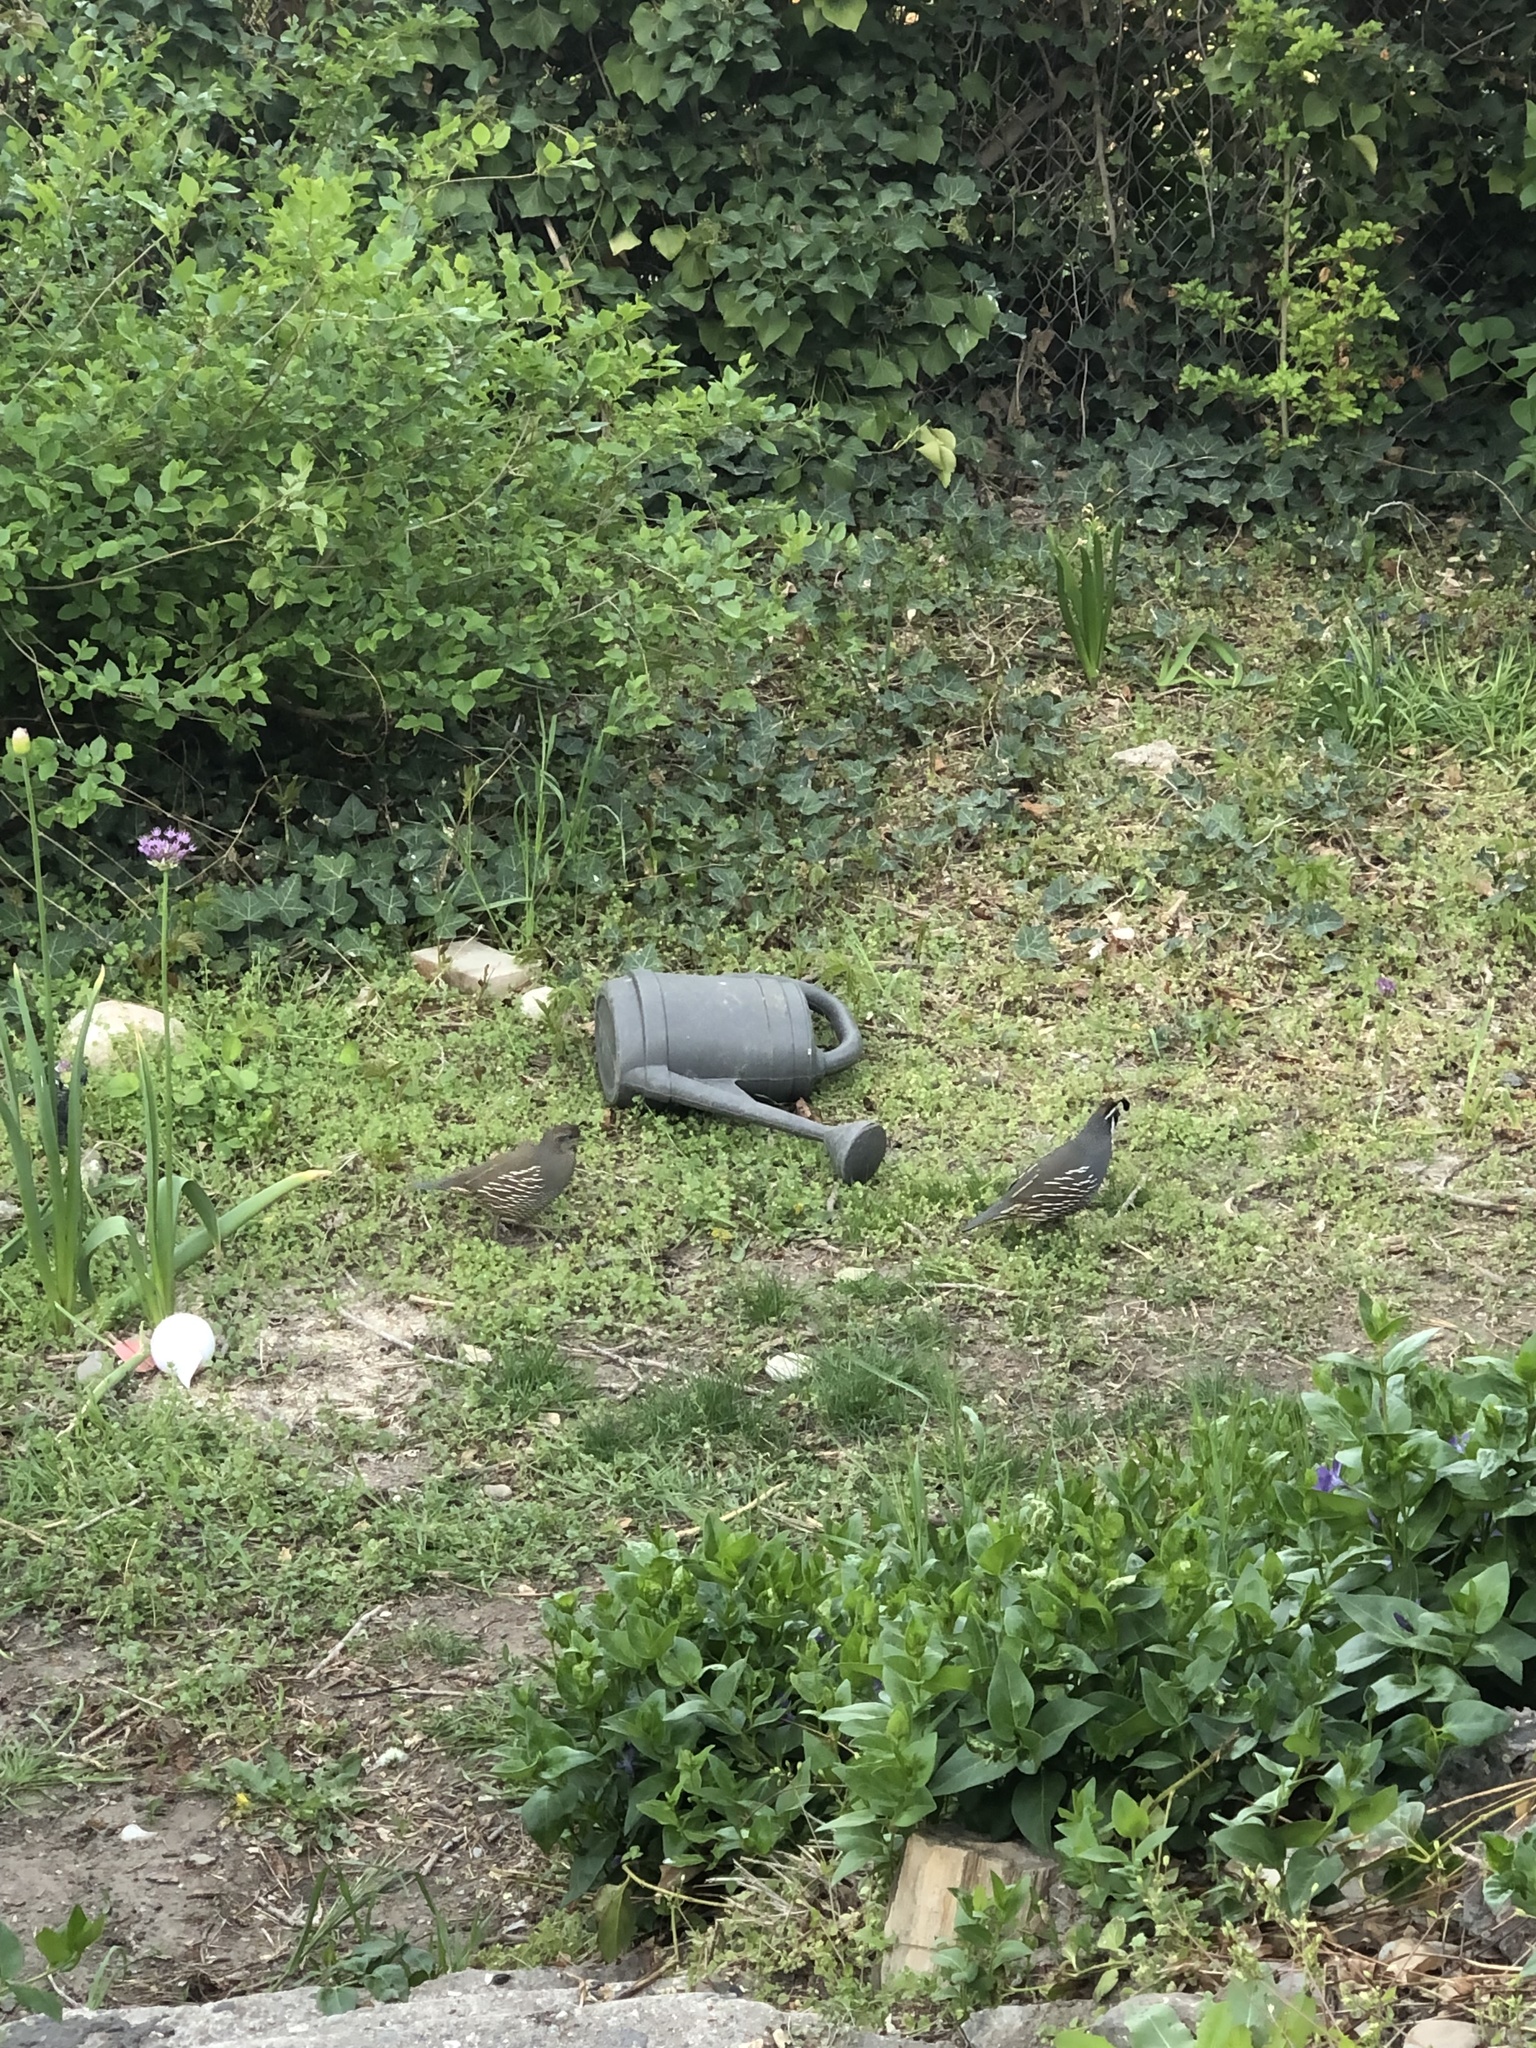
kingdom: Animalia
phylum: Chordata
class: Aves
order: Galliformes
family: Odontophoridae
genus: Callipepla
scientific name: Callipepla californica
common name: California quail
